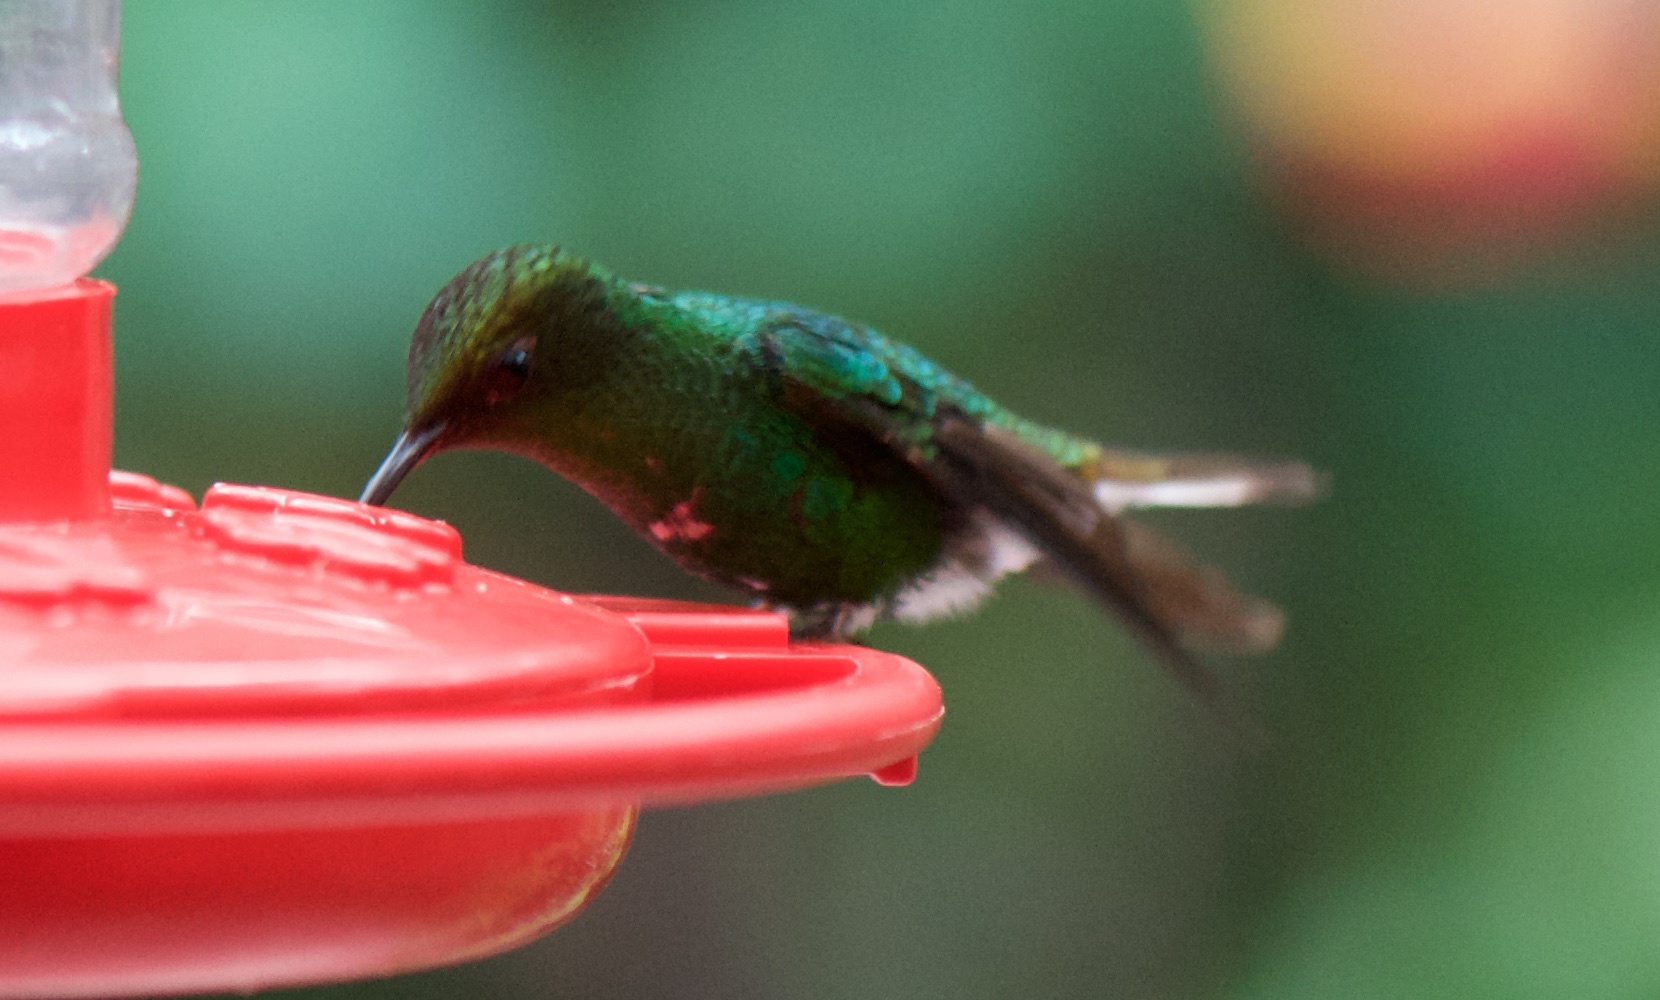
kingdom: Animalia
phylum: Chordata
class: Aves
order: Apodiformes
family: Trochilidae
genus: Microchera
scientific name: Microchera cupreiceps
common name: Coppery-headed emerald
